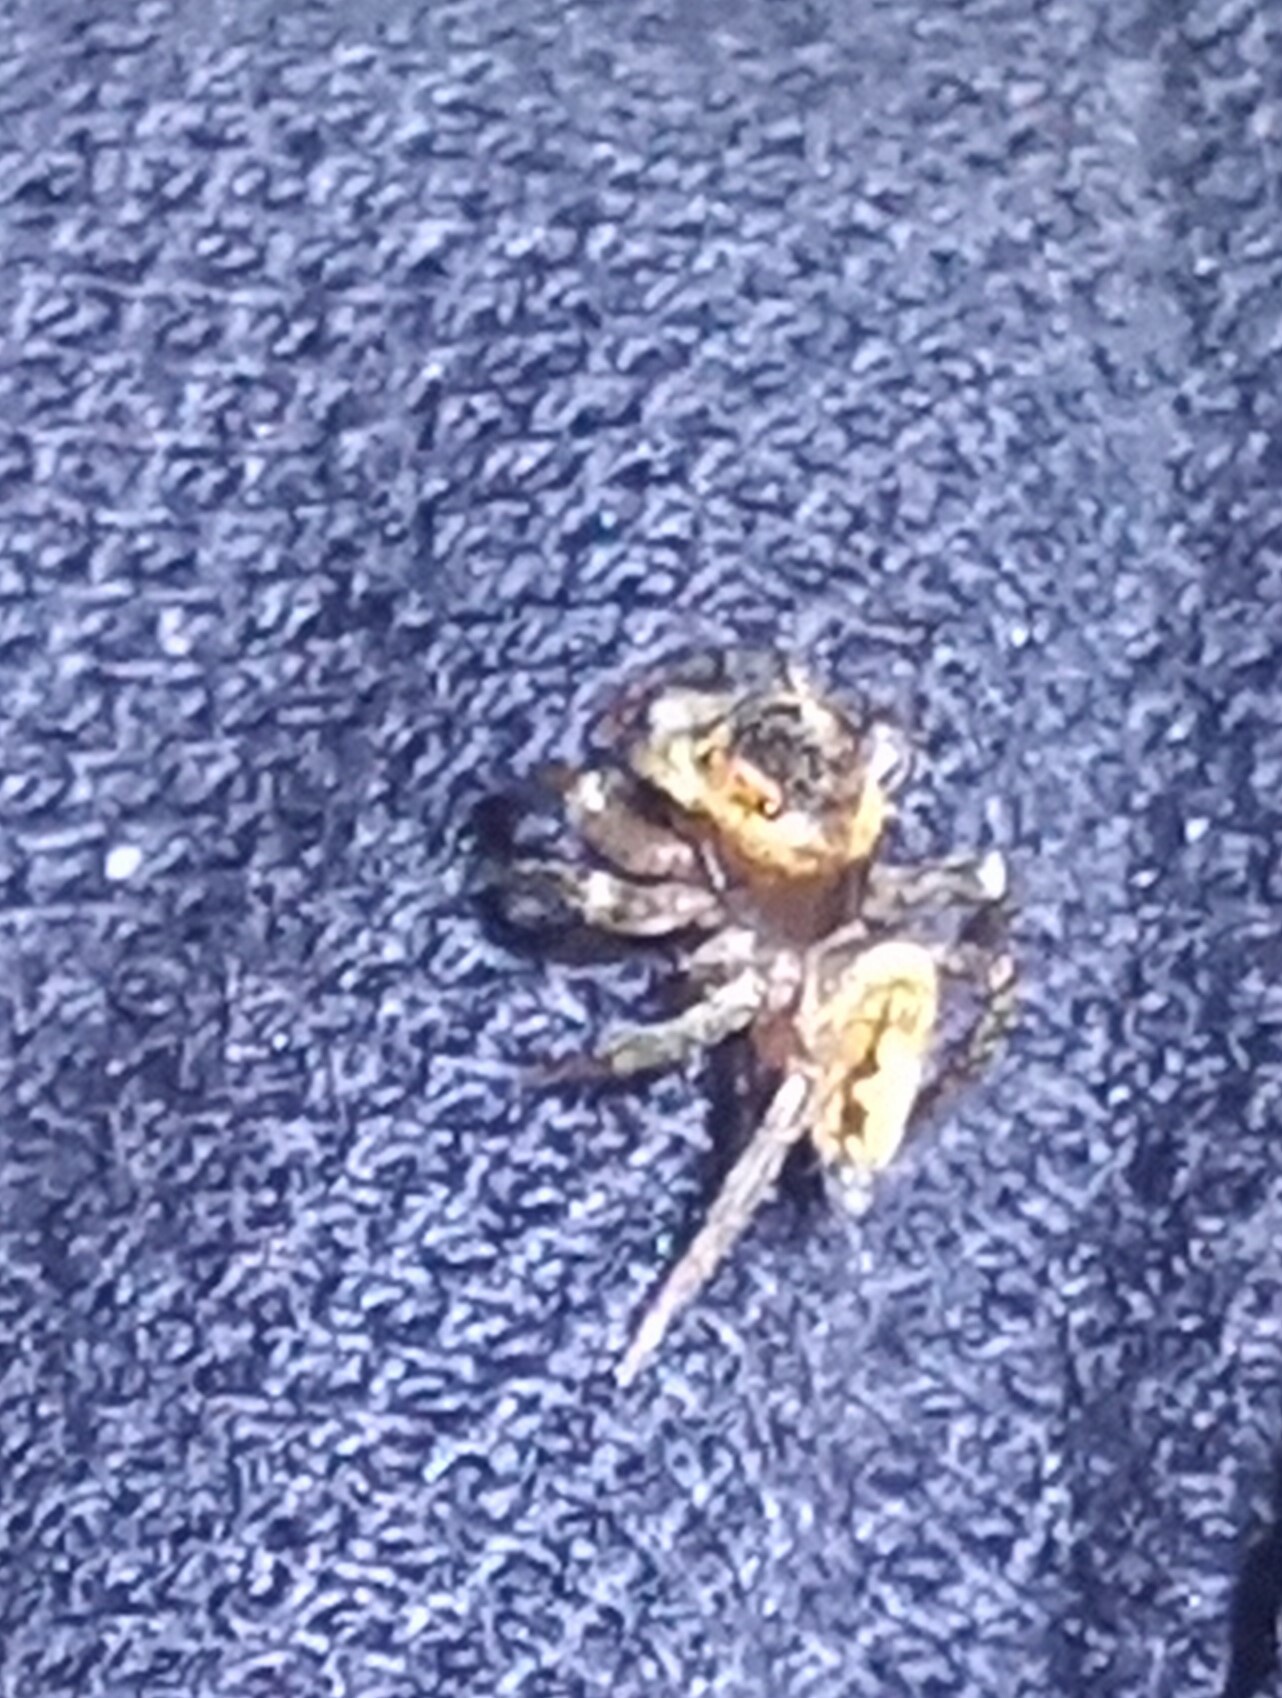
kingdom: Animalia
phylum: Arthropoda
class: Arachnida
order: Araneae
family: Salticidae
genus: Hasarius
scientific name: Hasarius adansoni
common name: Jumping spider
